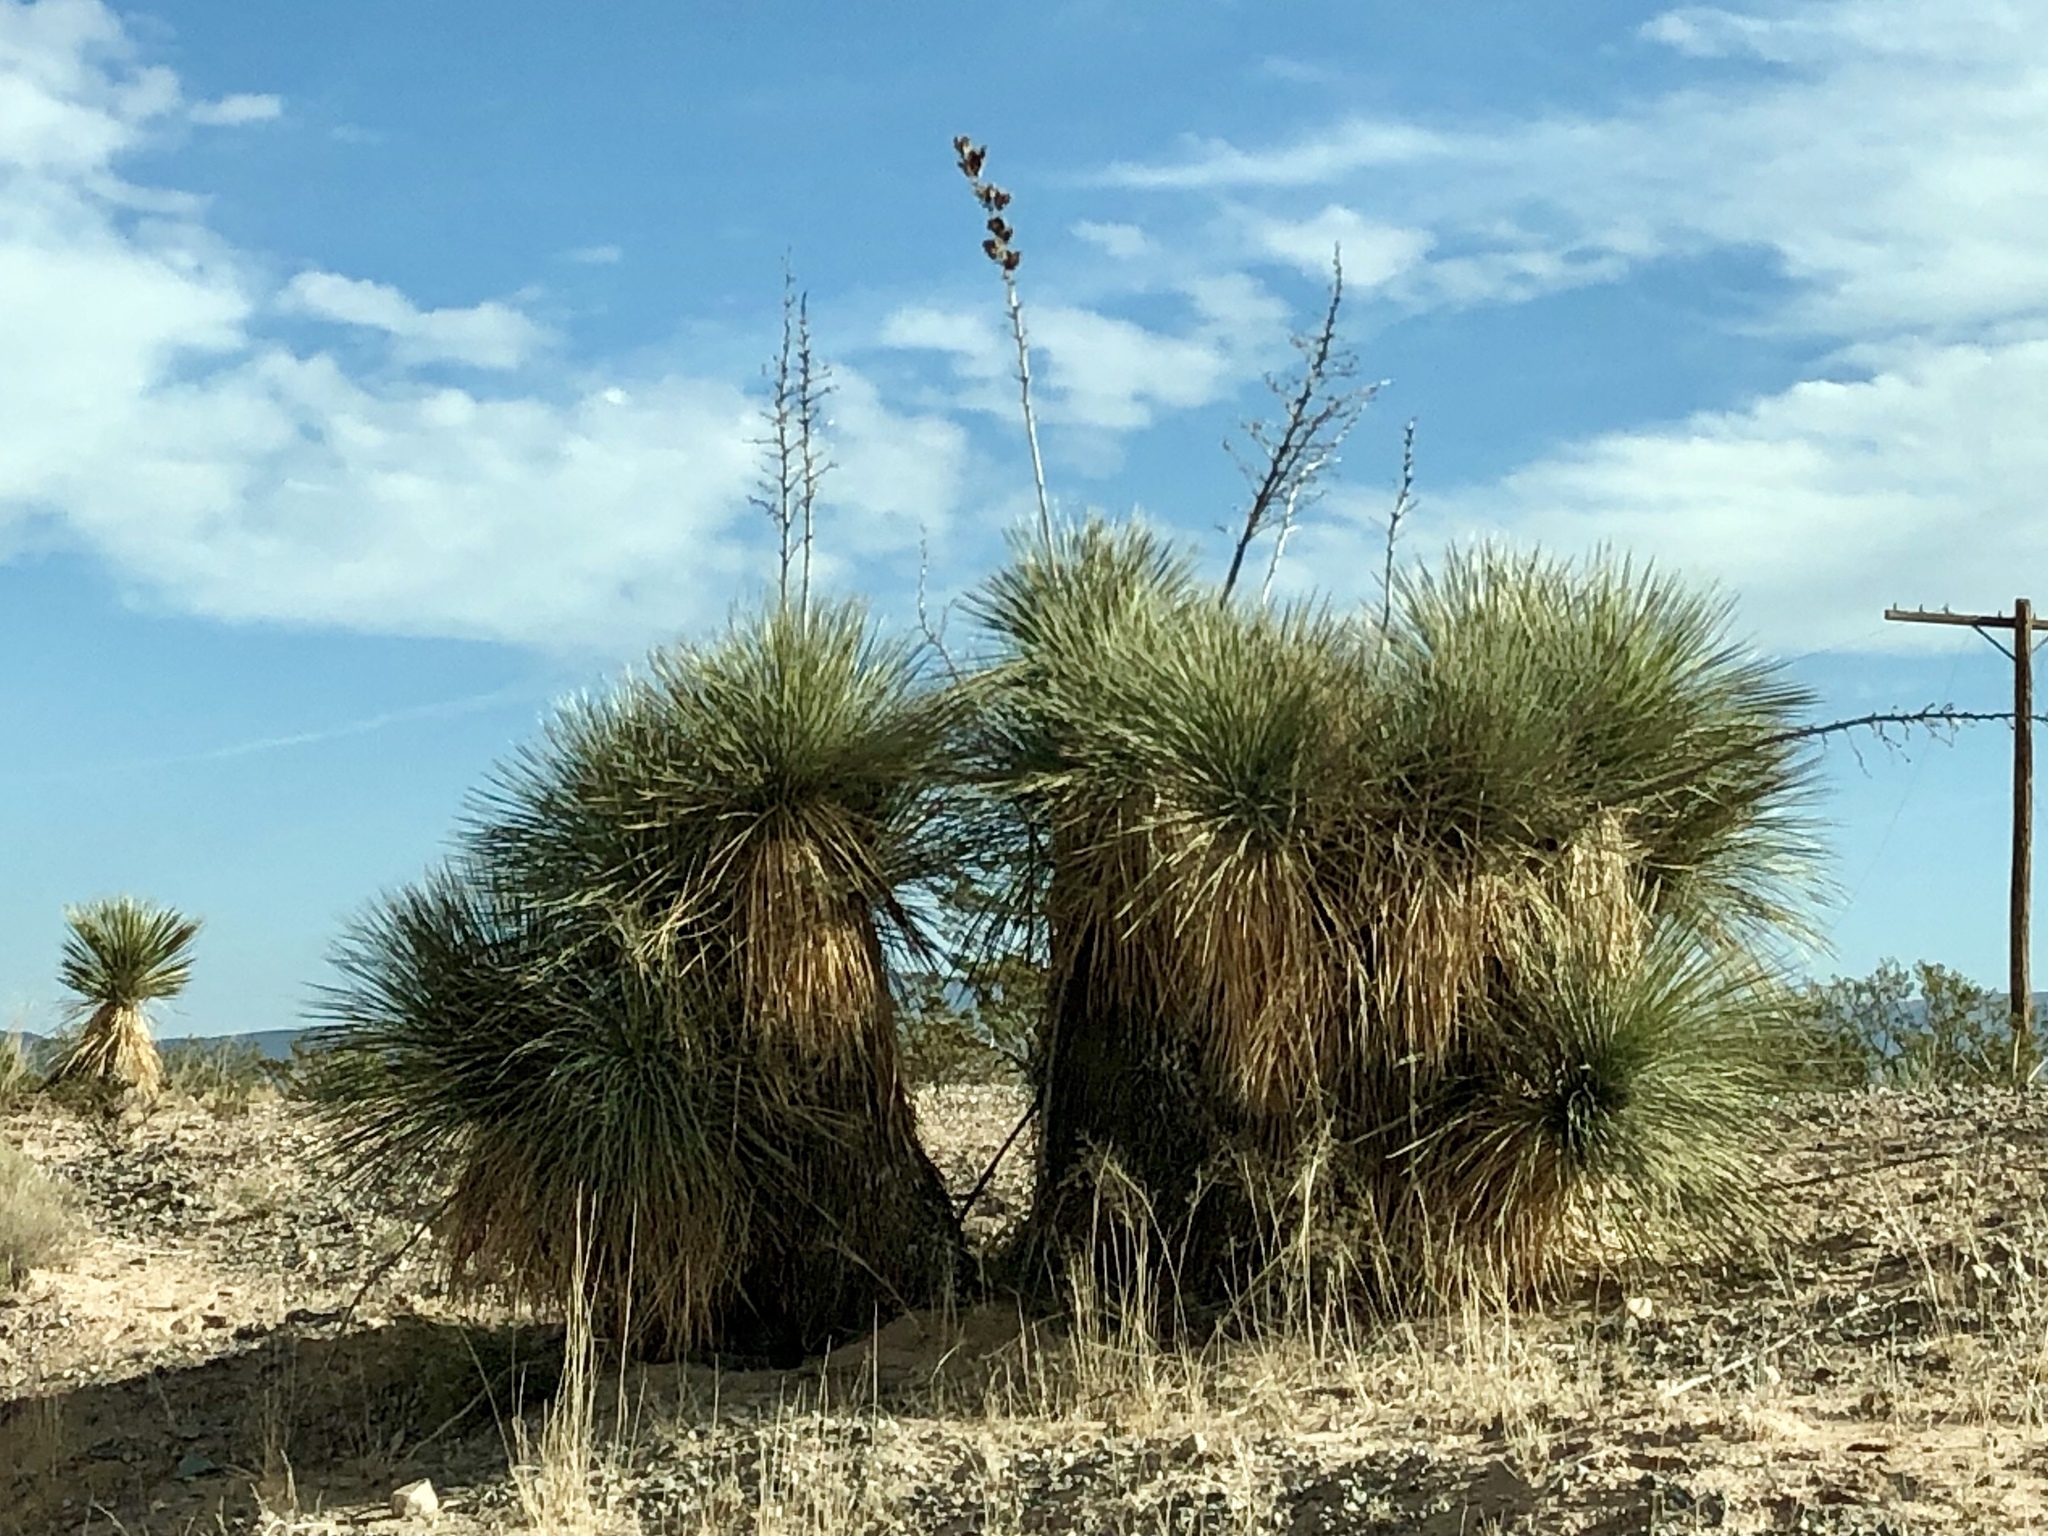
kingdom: Plantae
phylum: Tracheophyta
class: Liliopsida
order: Asparagales
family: Asparagaceae
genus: Yucca
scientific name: Yucca elata
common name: Palmella
